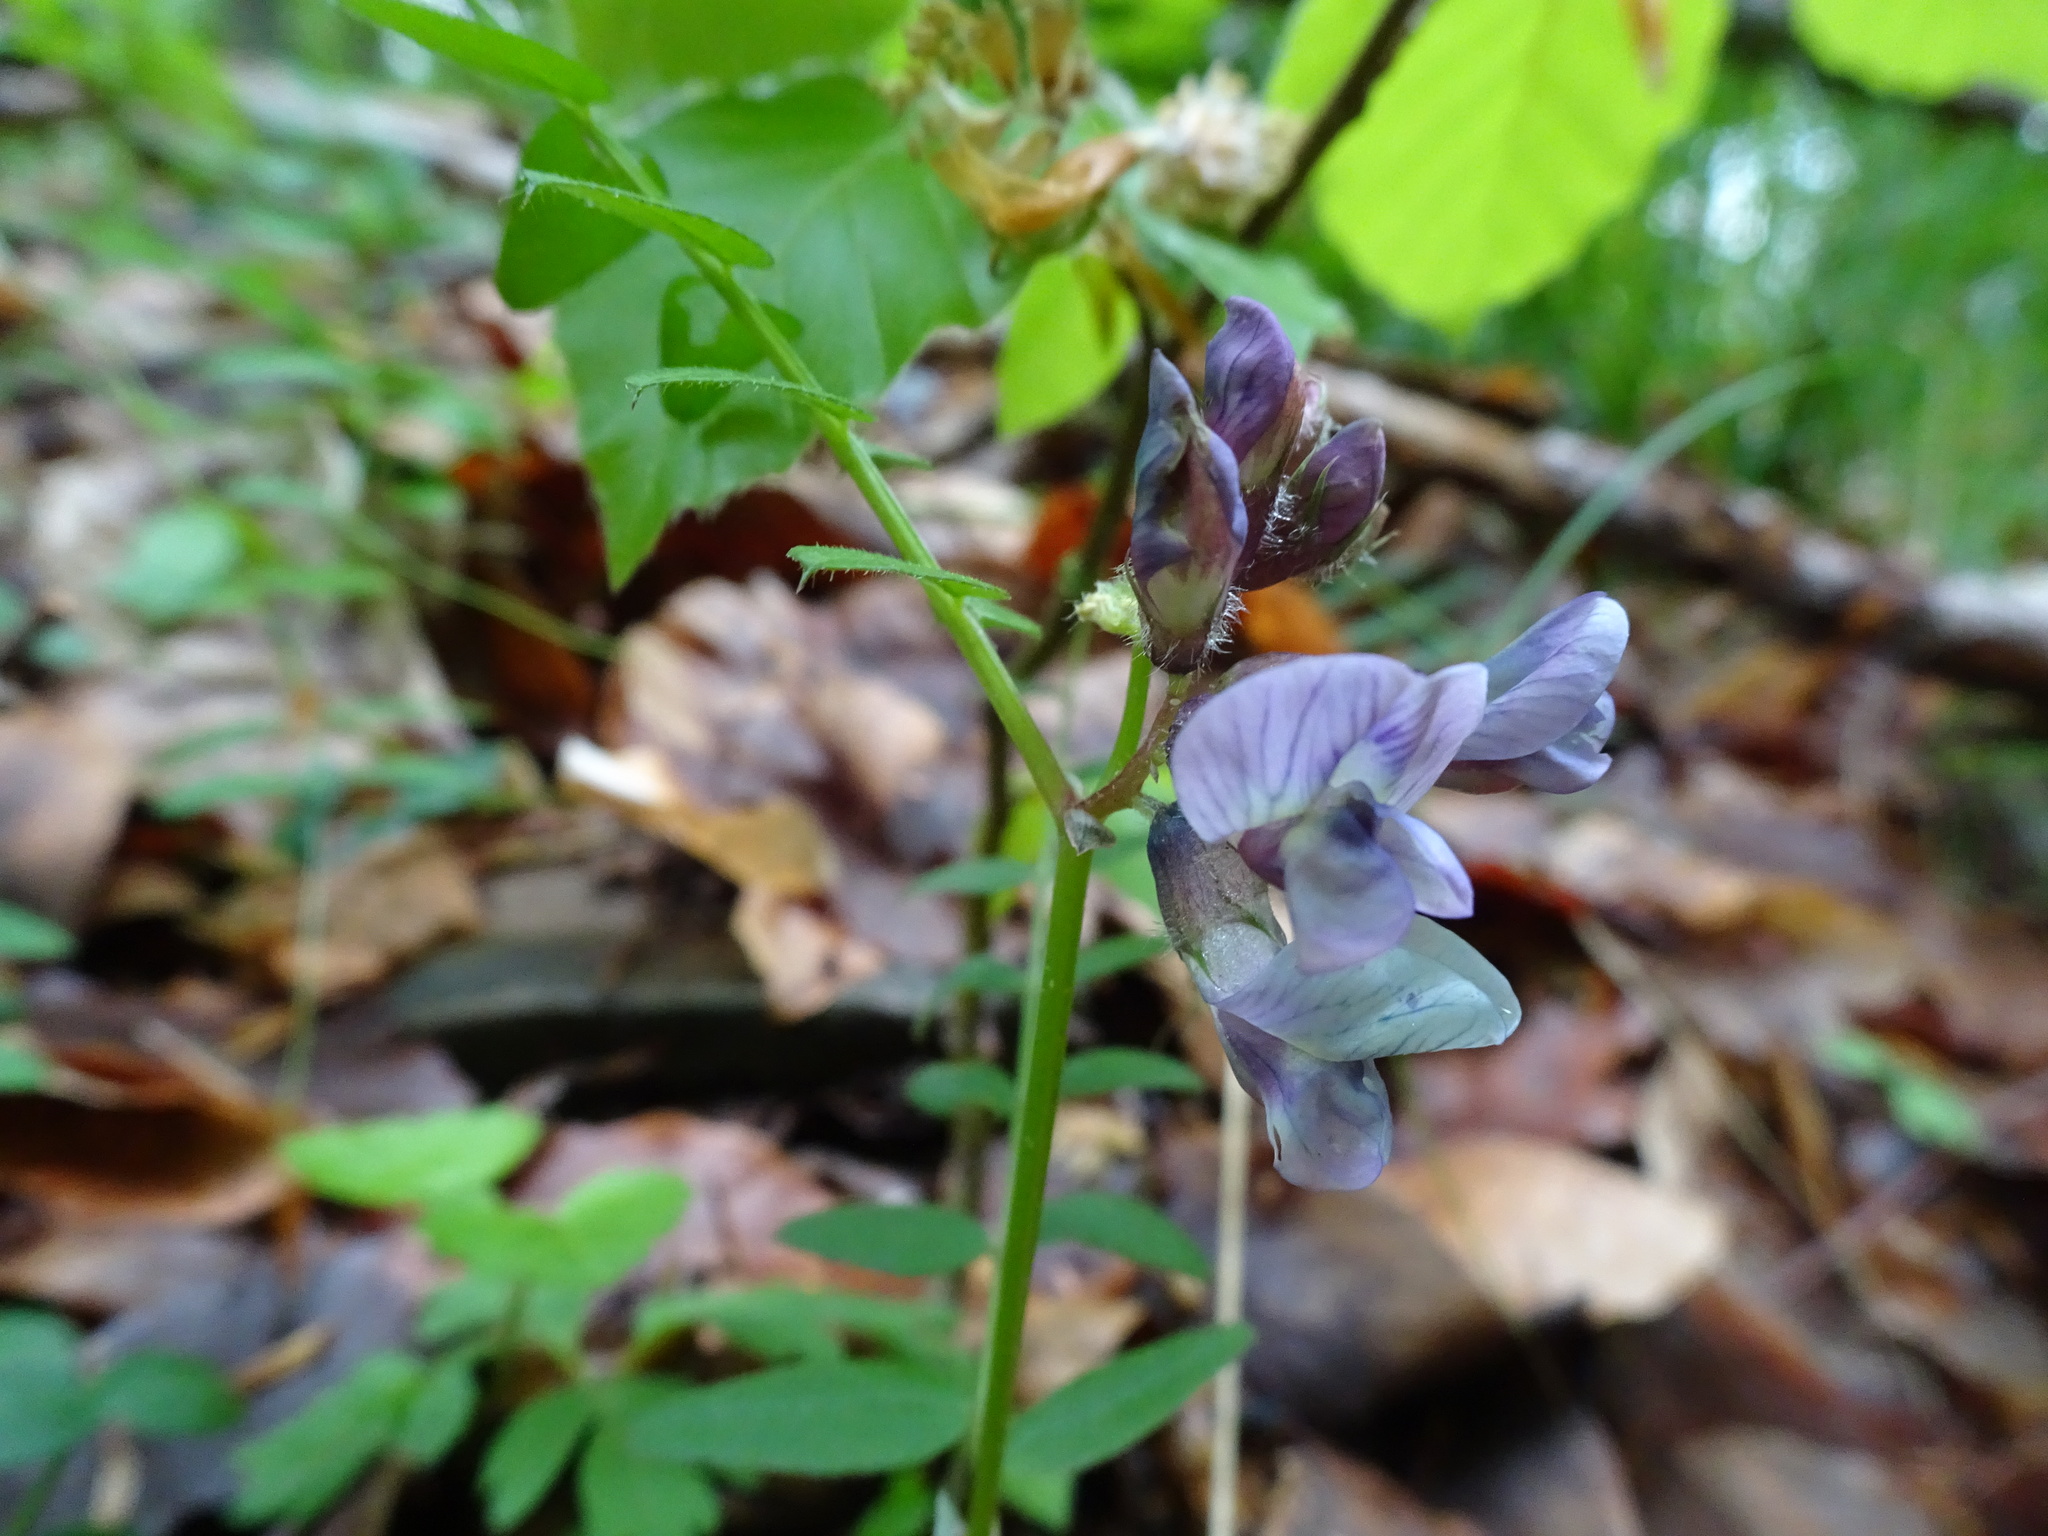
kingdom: Plantae
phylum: Tracheophyta
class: Magnoliopsida
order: Fabales
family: Fabaceae
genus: Vicia
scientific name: Vicia sepium
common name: Bush vetch
